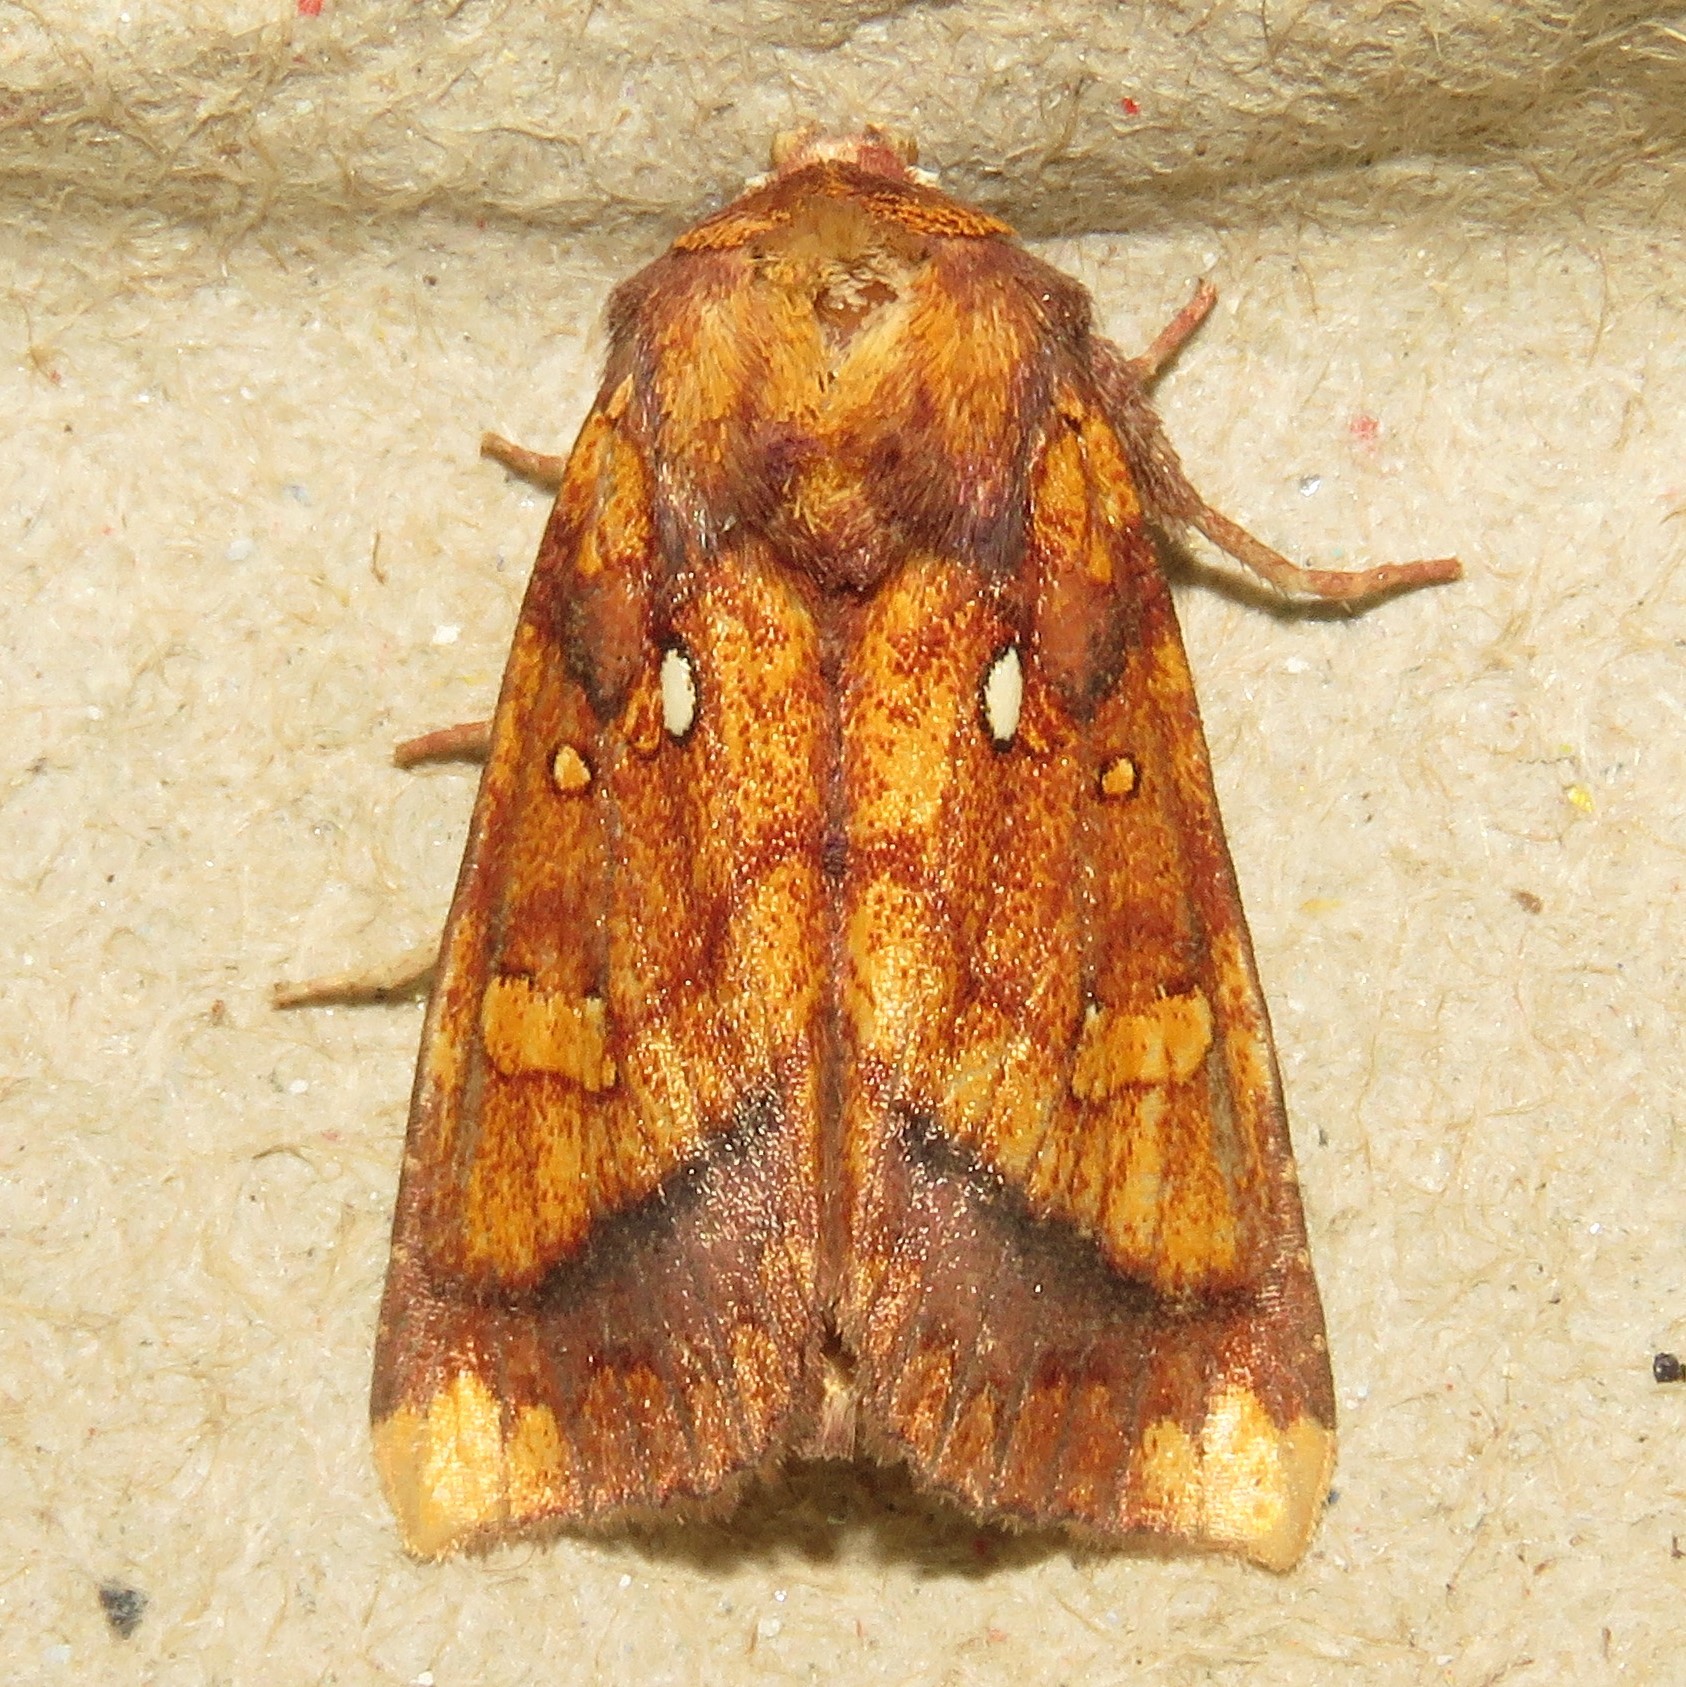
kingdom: Animalia
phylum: Arthropoda
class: Insecta
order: Lepidoptera
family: Noctuidae
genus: Papaipema
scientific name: Papaipema leucostigma
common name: Columbine borer moth
